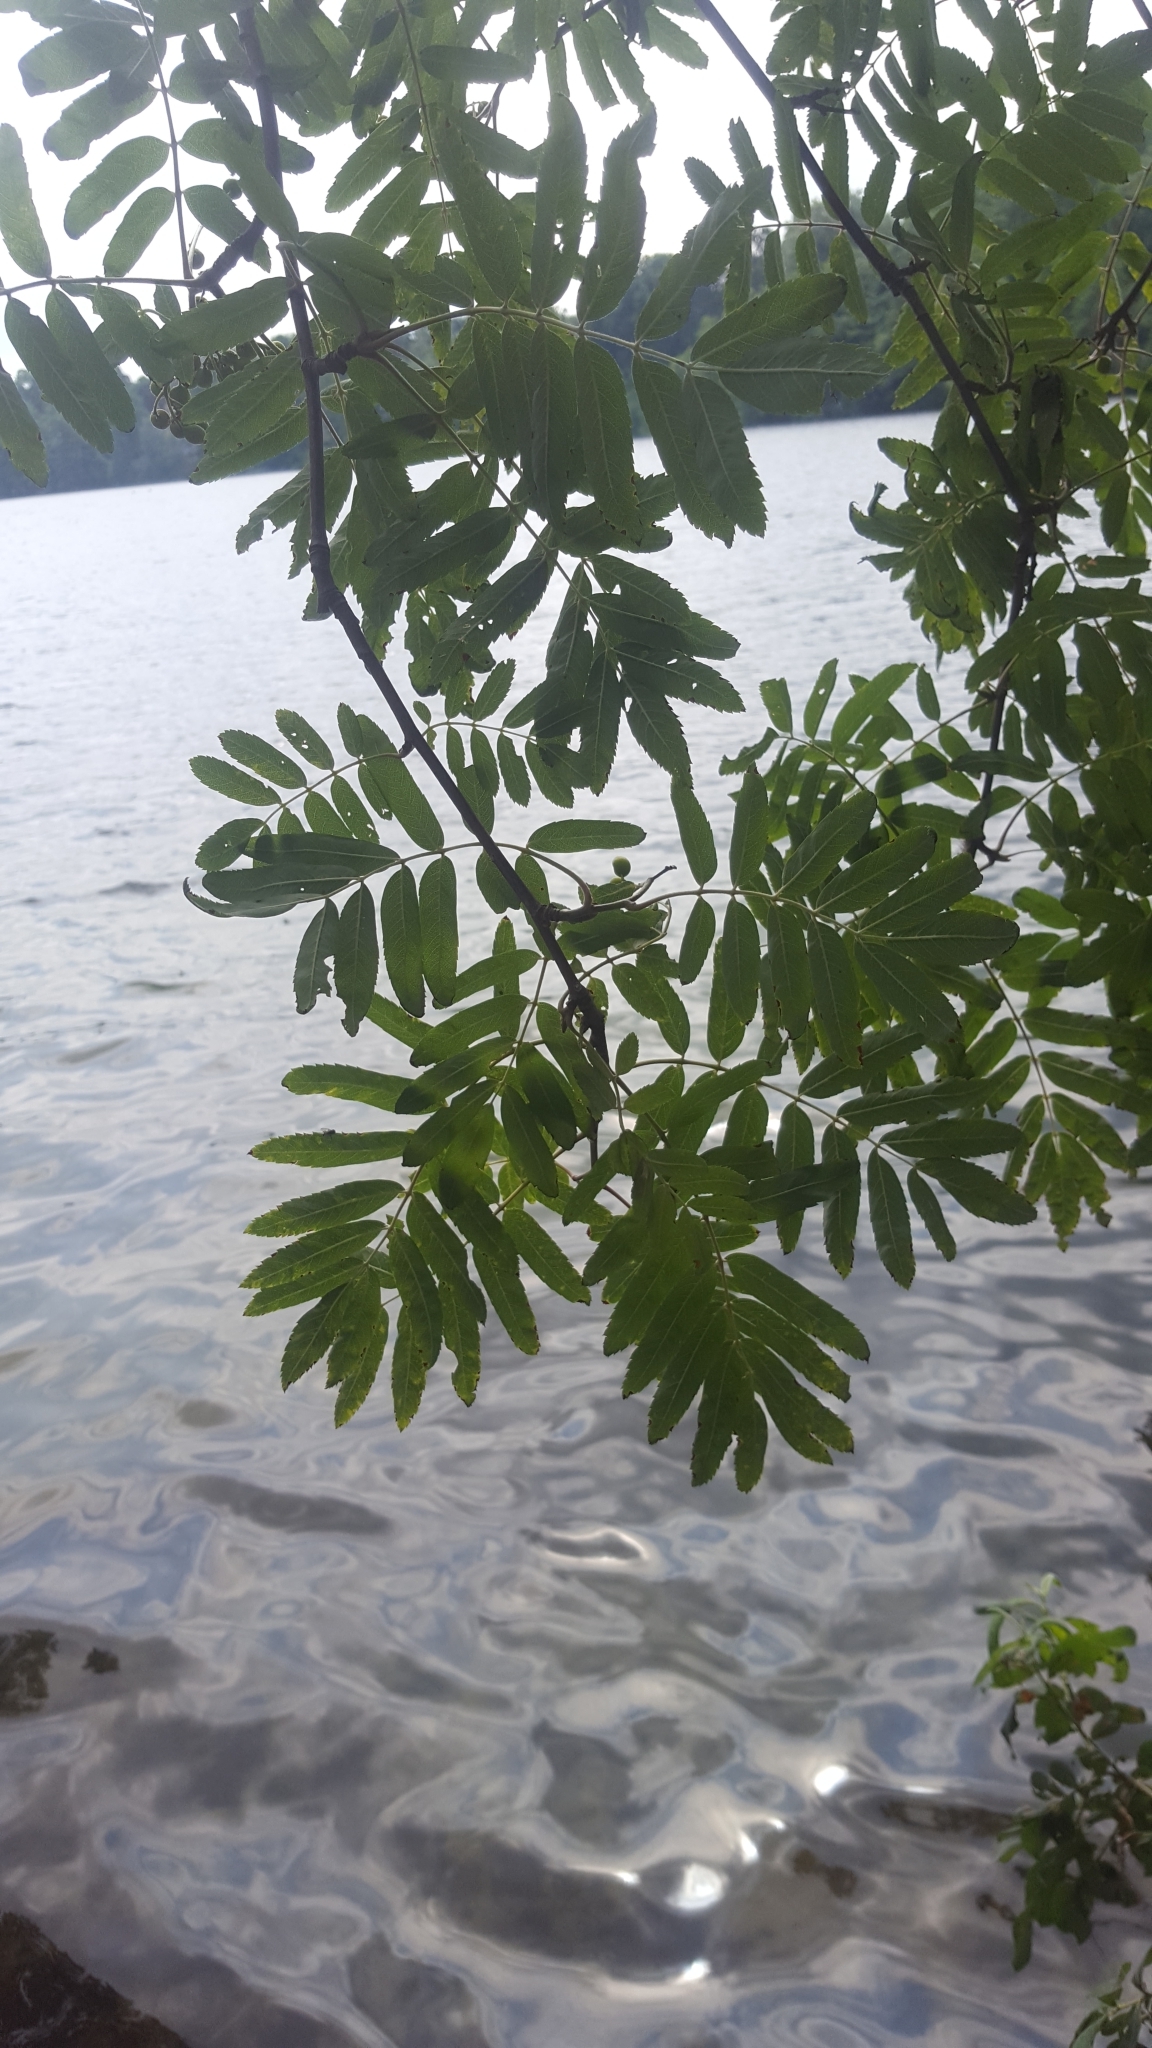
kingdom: Plantae
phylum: Tracheophyta
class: Magnoliopsida
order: Rosales
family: Rosaceae
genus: Sorbus
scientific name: Sorbus aucuparia
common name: Rowan
